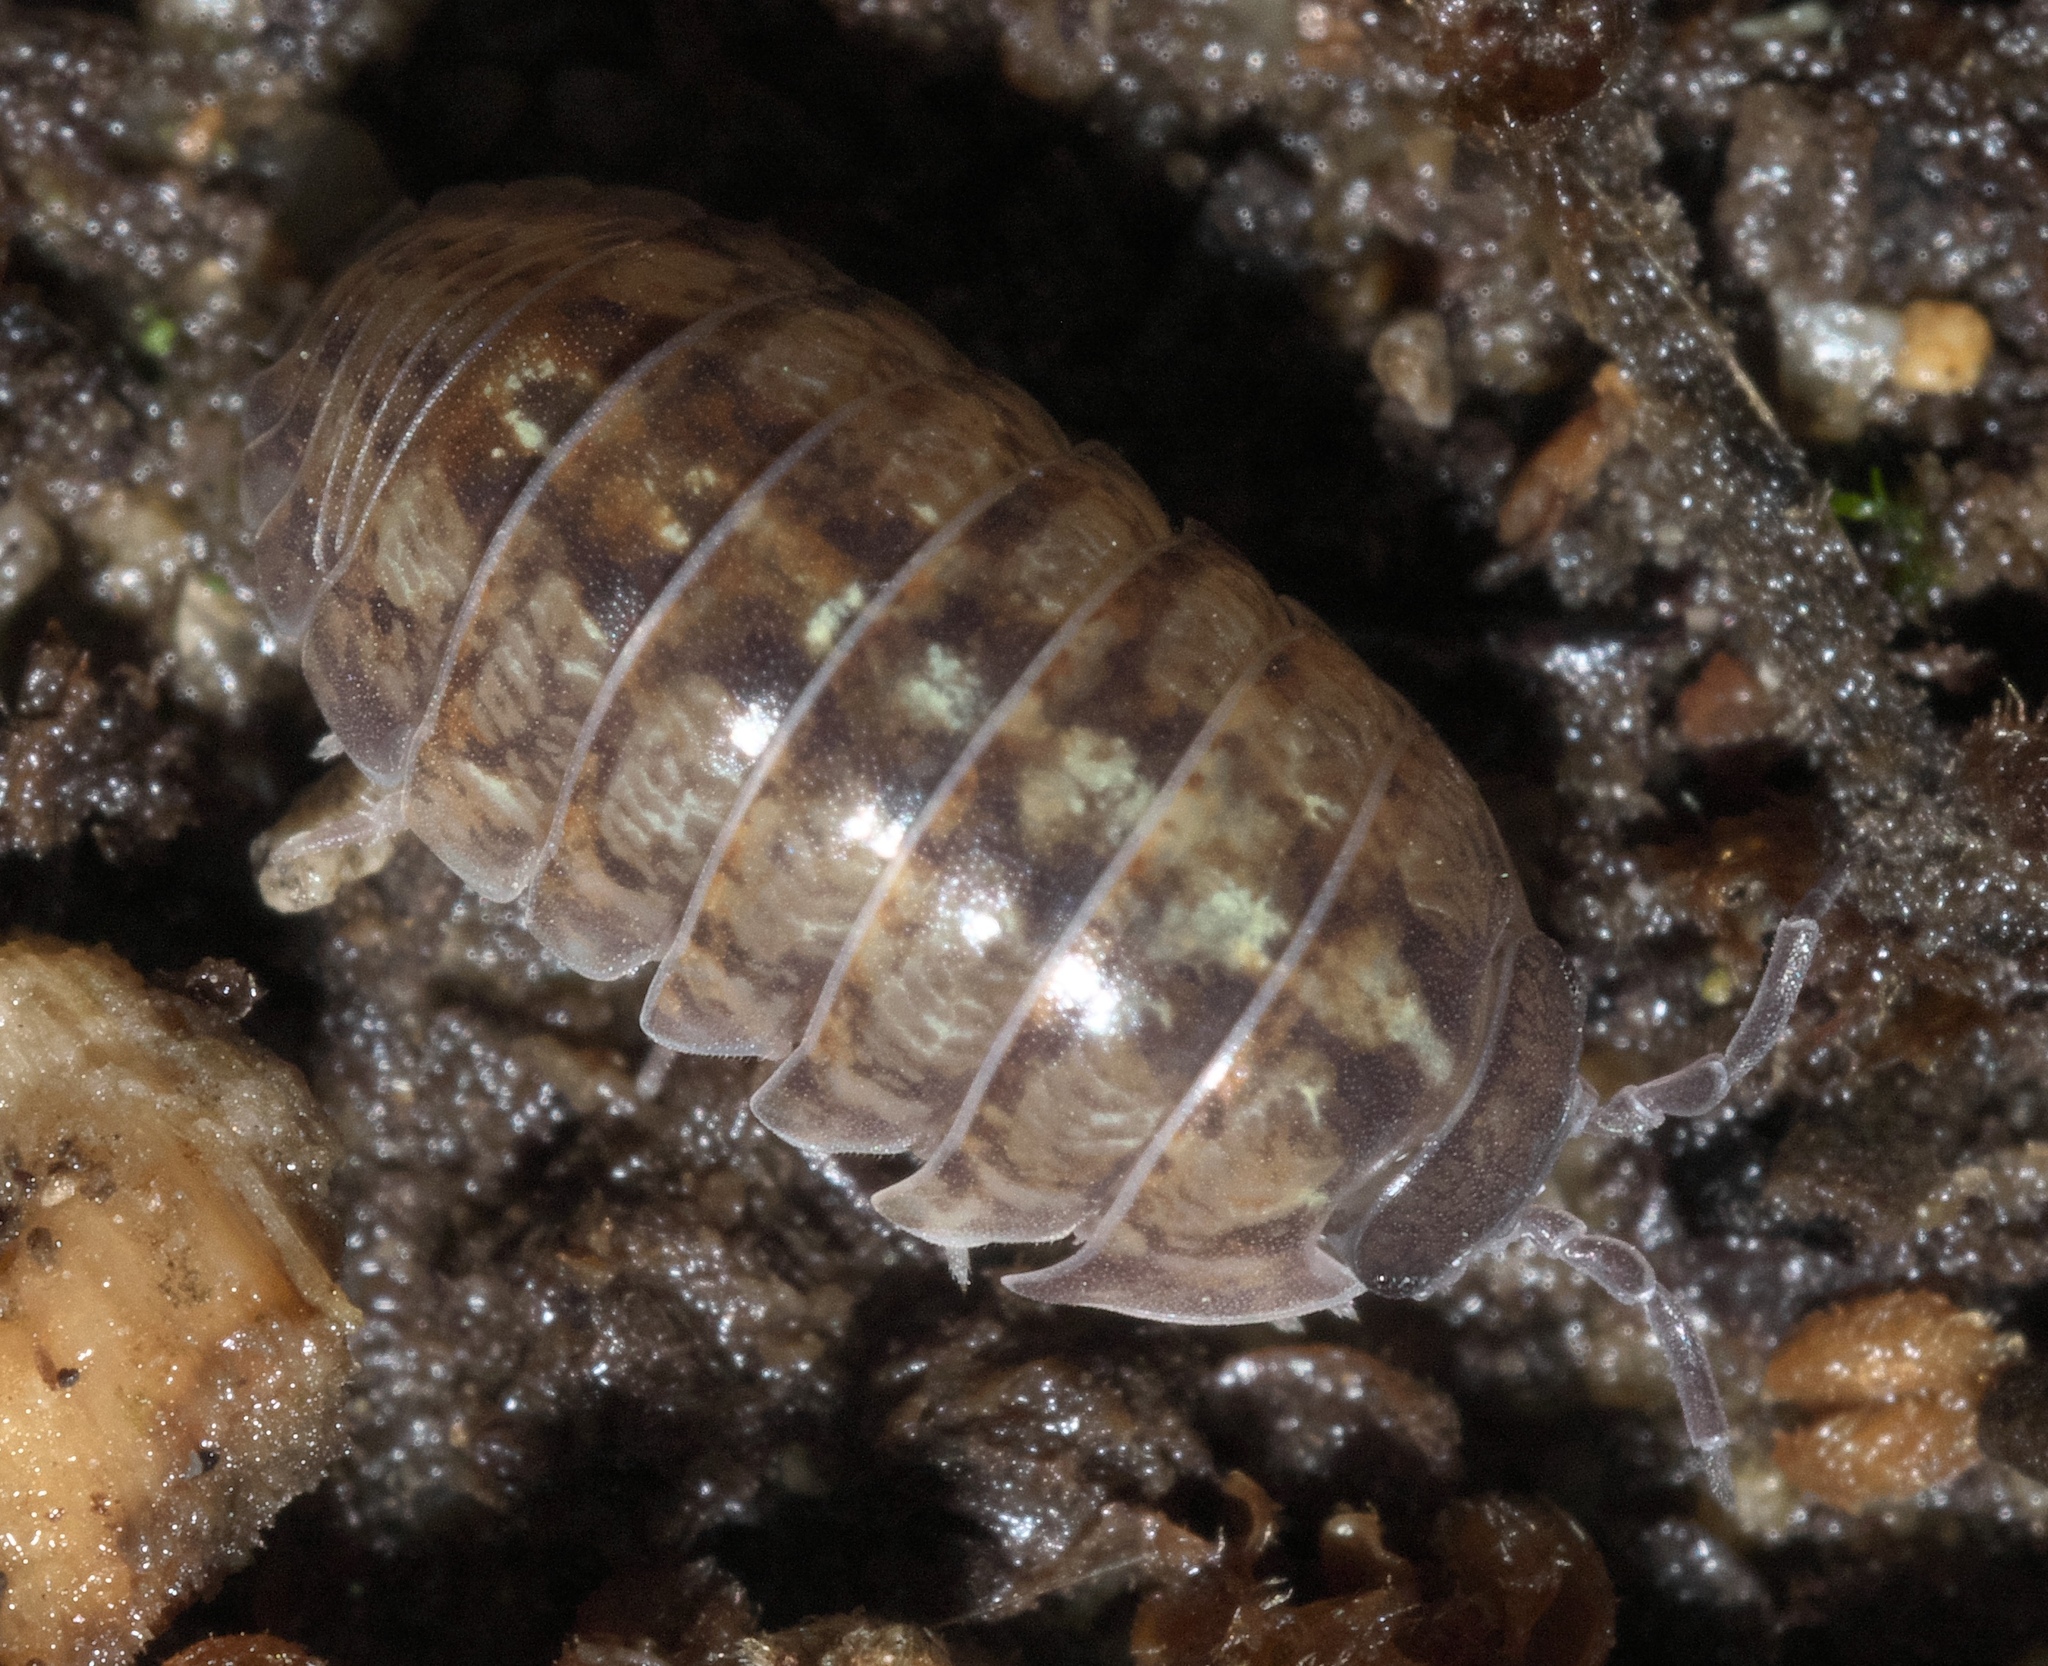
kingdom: Animalia
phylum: Arthropoda
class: Malacostraca
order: Isopoda
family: Armadillidiidae
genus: Armadillidium
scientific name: Armadillidium vulgare
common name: Common pill woodlouse
